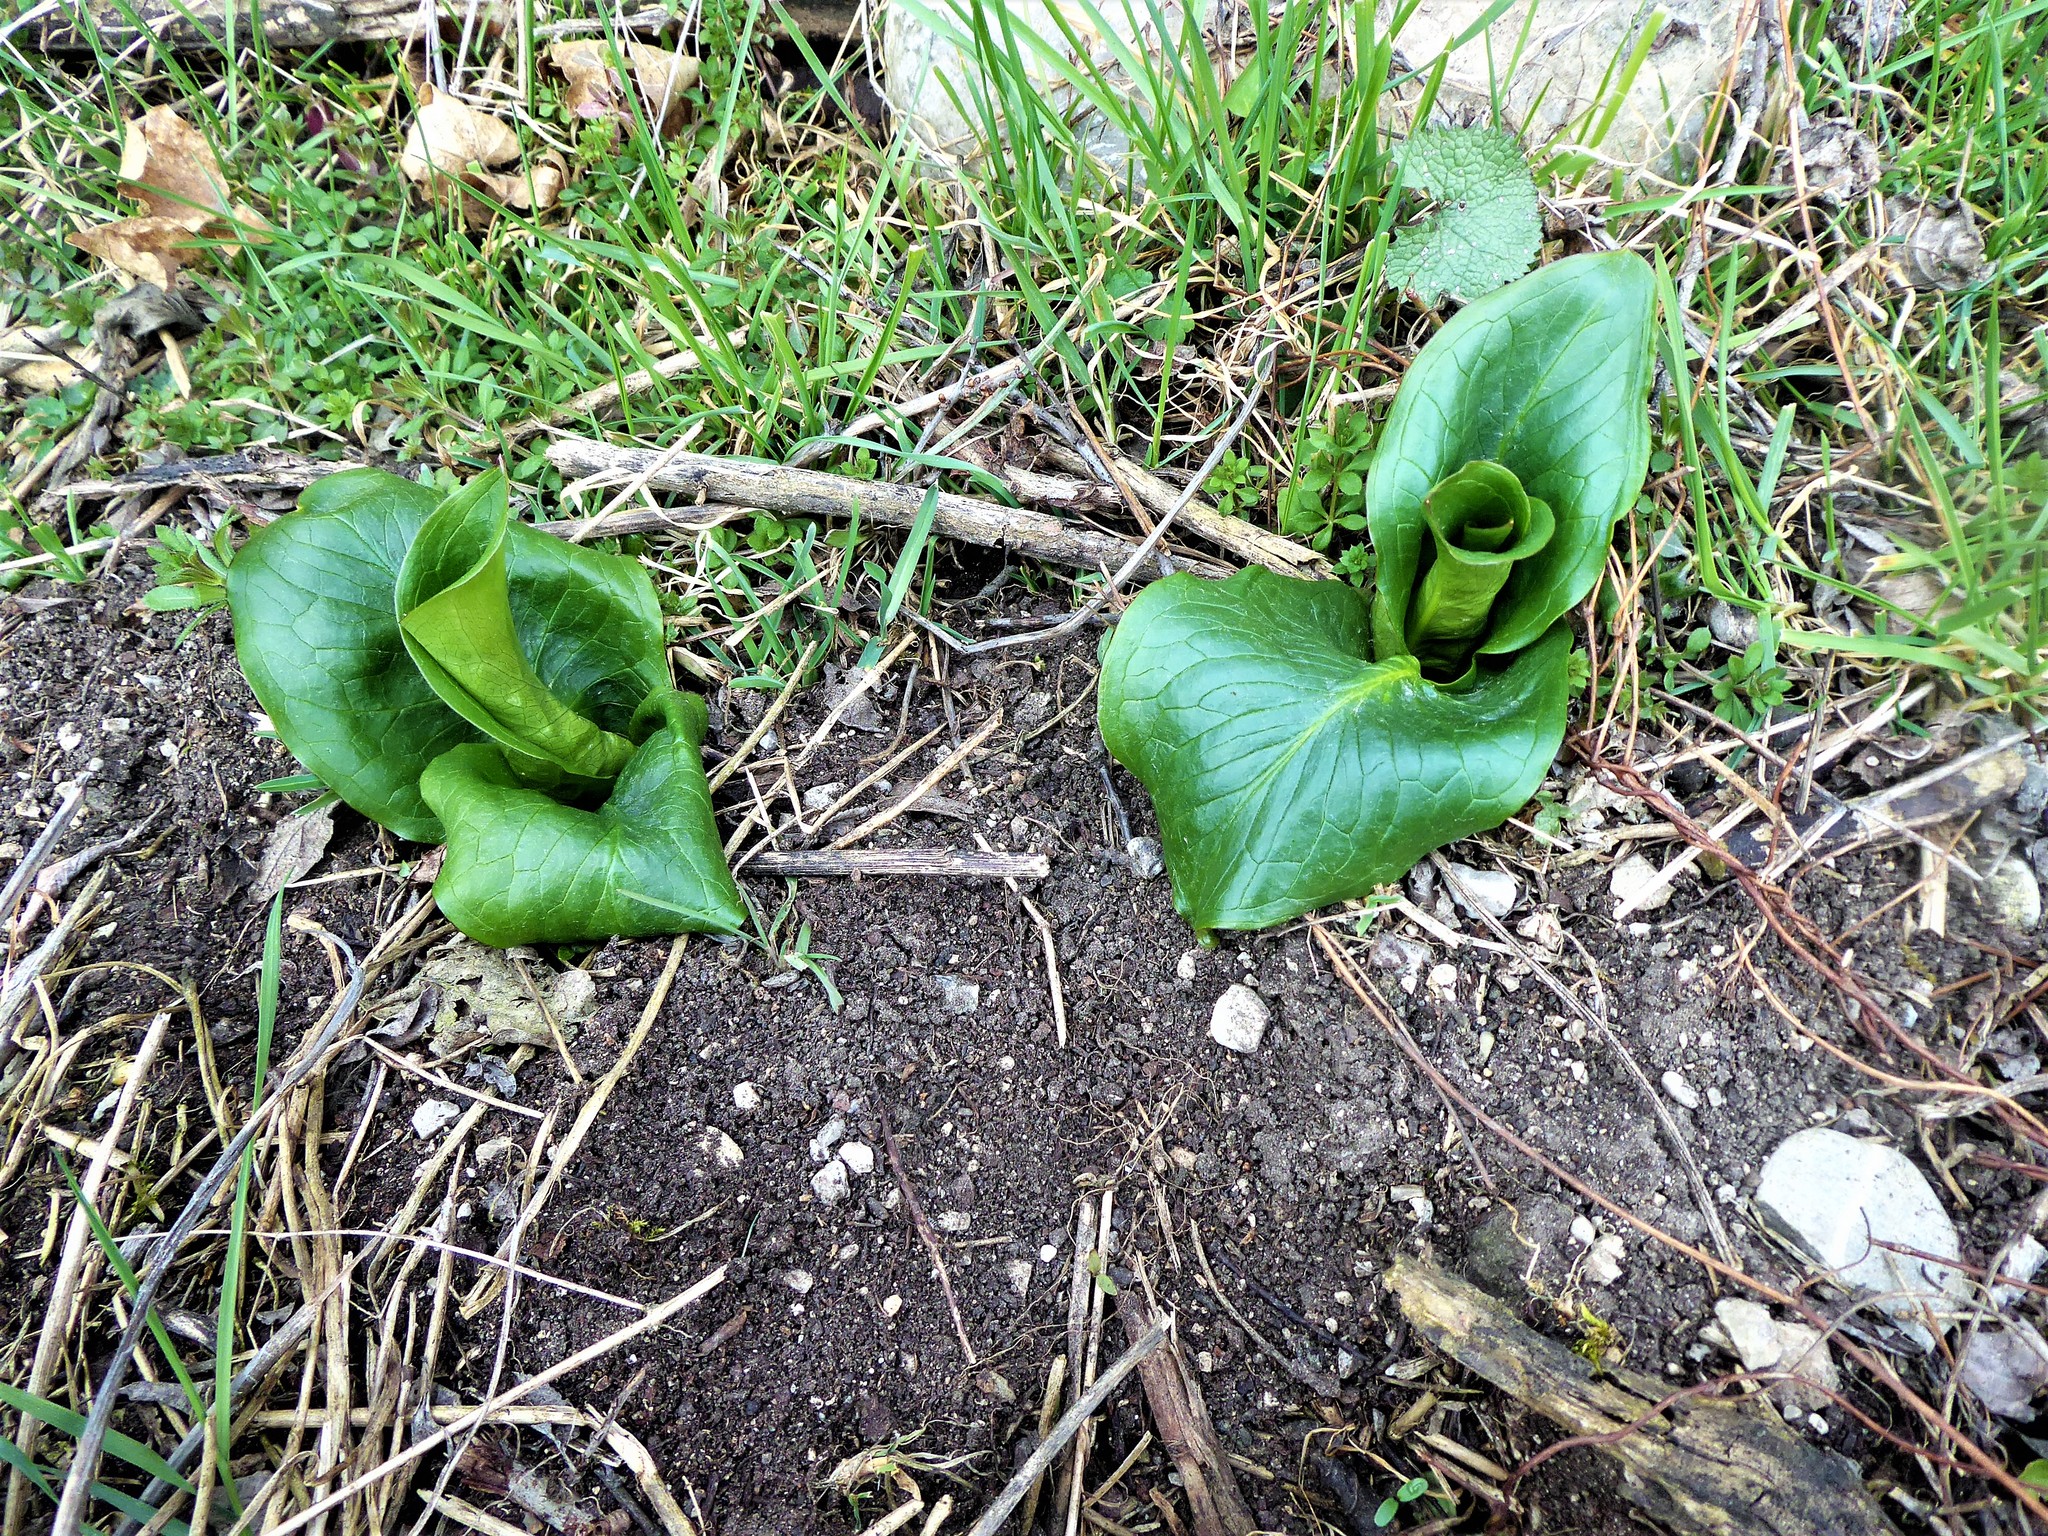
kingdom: Plantae
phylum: Tracheophyta
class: Liliopsida
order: Alismatales
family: Araceae
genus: Arum
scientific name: Arum cylindraceum
